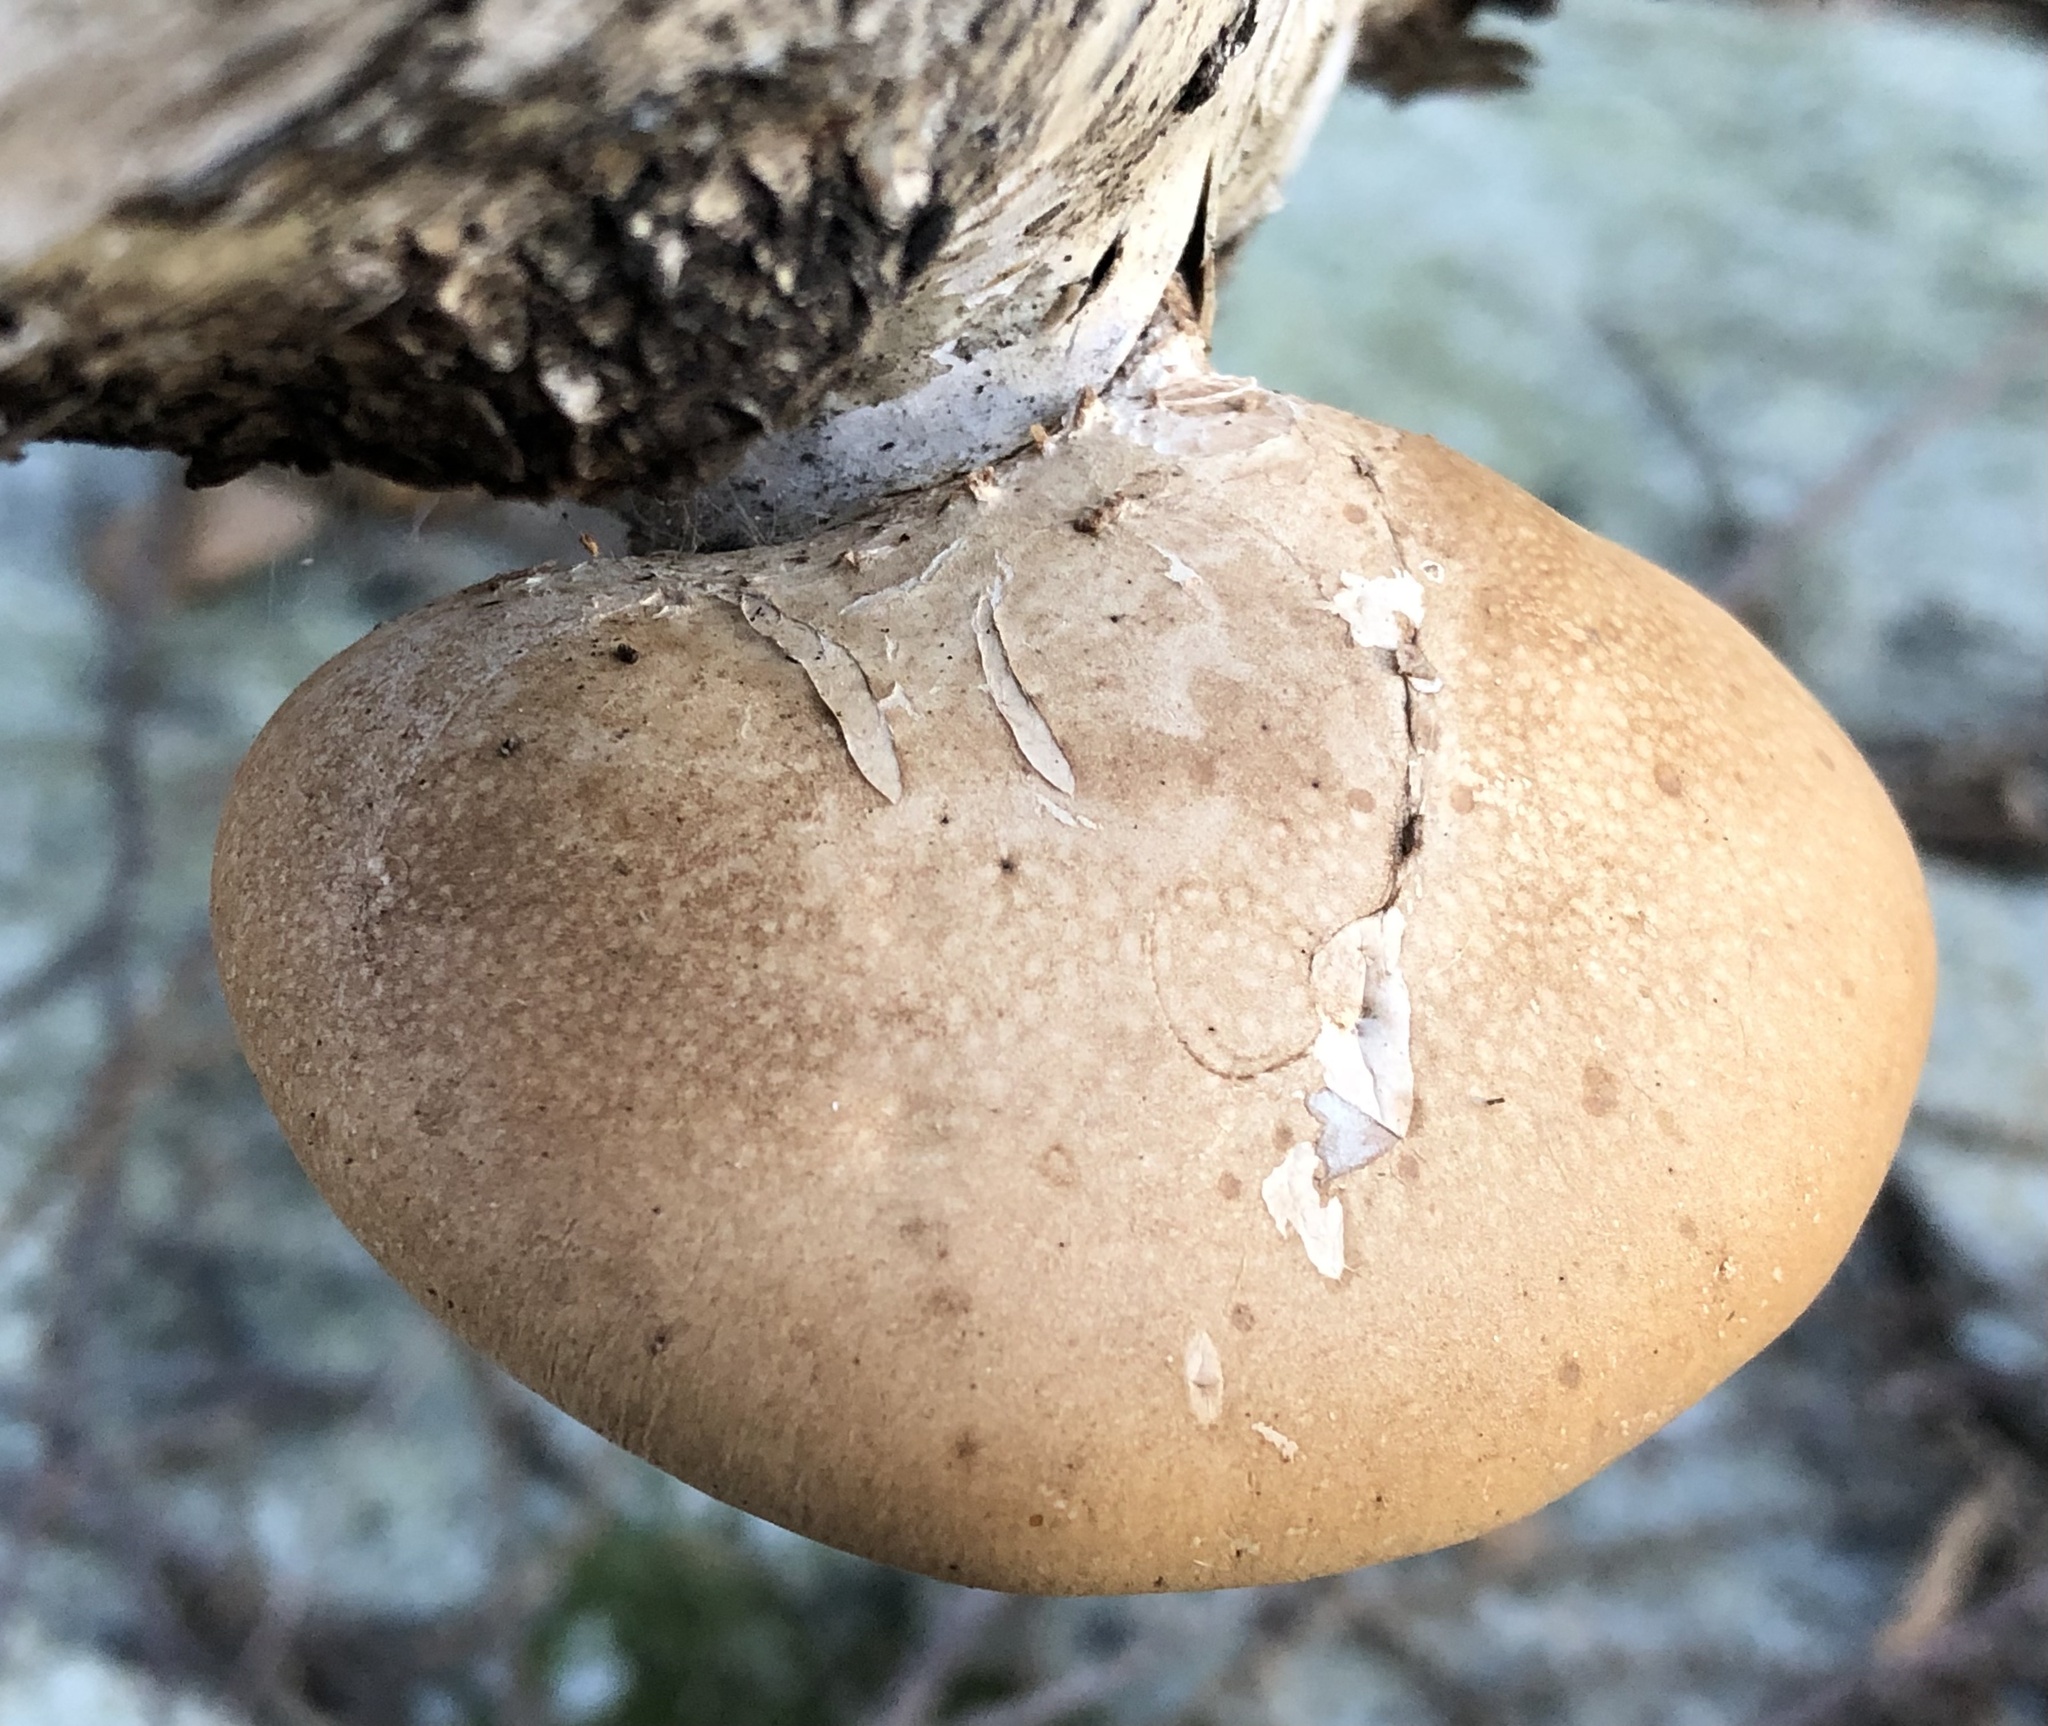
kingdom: Fungi
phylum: Basidiomycota
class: Agaricomycetes
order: Polyporales
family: Fomitopsidaceae
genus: Fomitopsis
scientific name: Fomitopsis betulina
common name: Birch polypore
